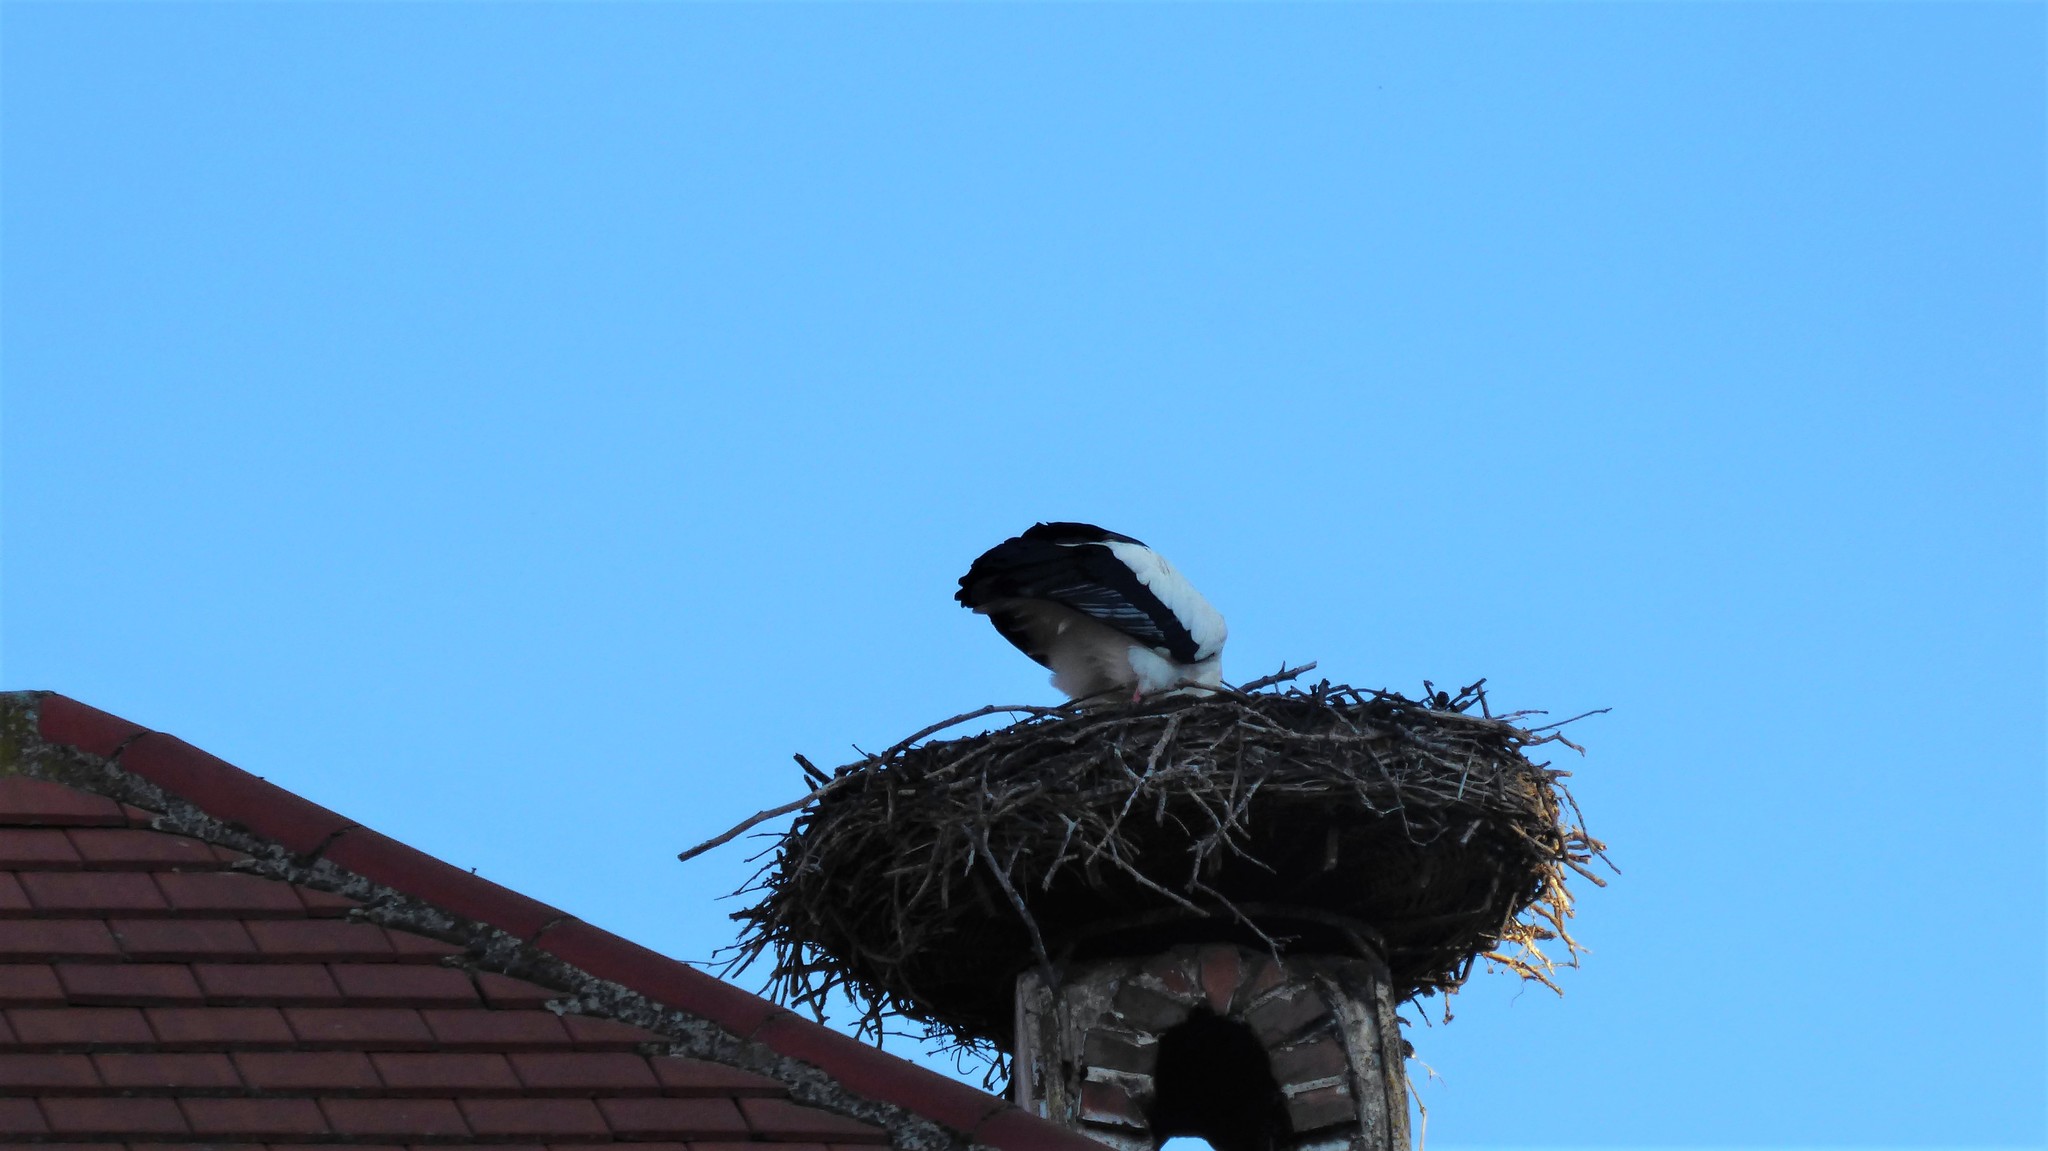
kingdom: Animalia
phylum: Chordata
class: Aves
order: Ciconiiformes
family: Ciconiidae
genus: Ciconia
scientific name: Ciconia ciconia
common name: White stork
